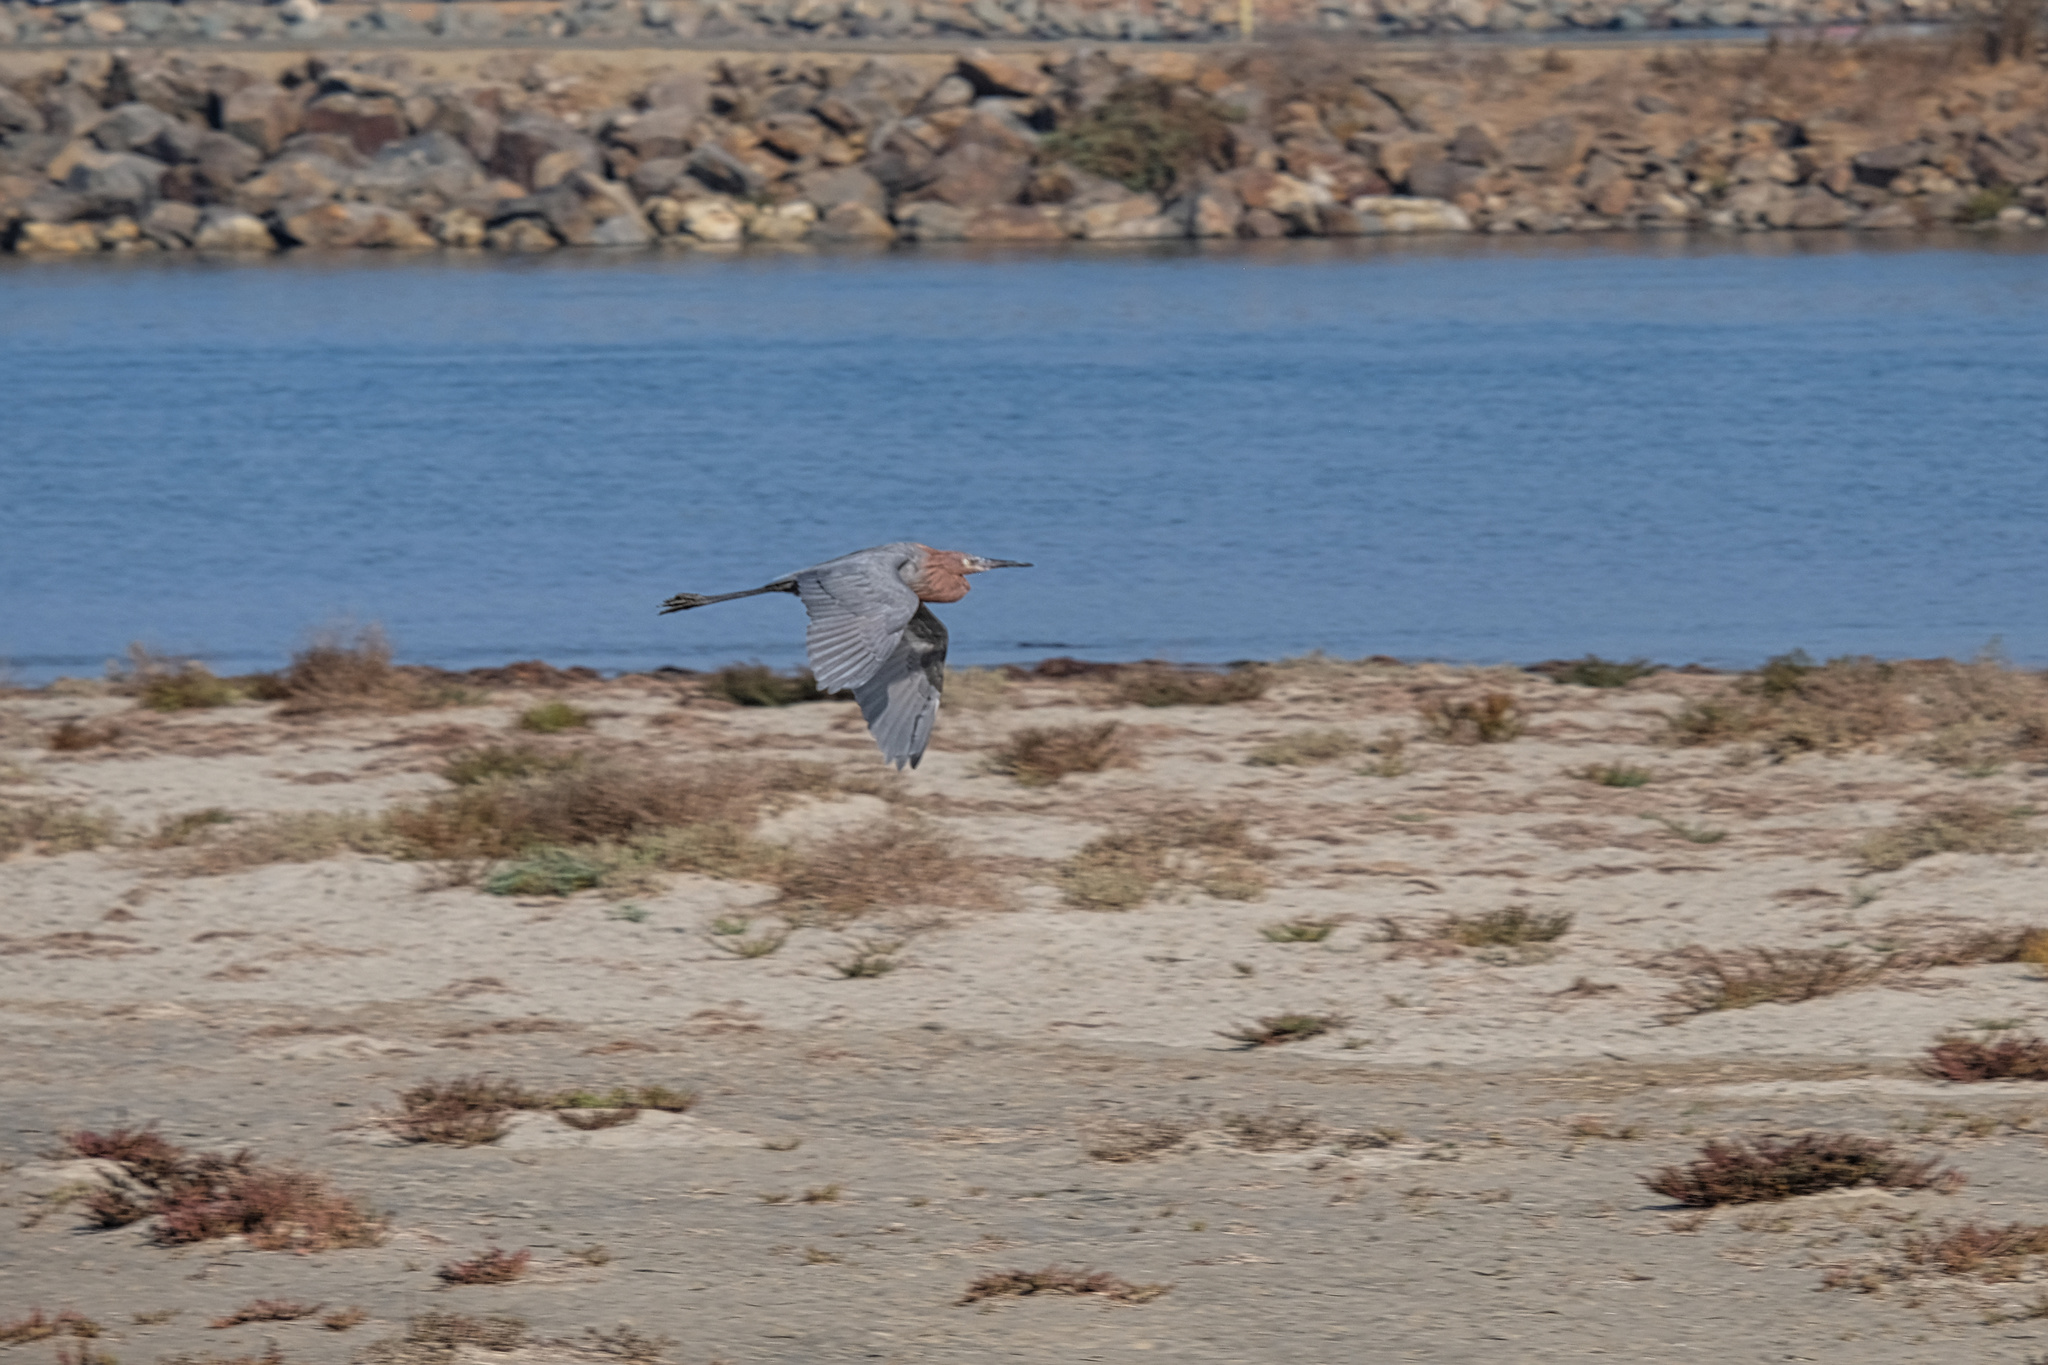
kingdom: Animalia
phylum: Chordata
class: Aves
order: Pelecaniformes
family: Ardeidae
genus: Egretta
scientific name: Egretta rufescens
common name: Reddish egret
